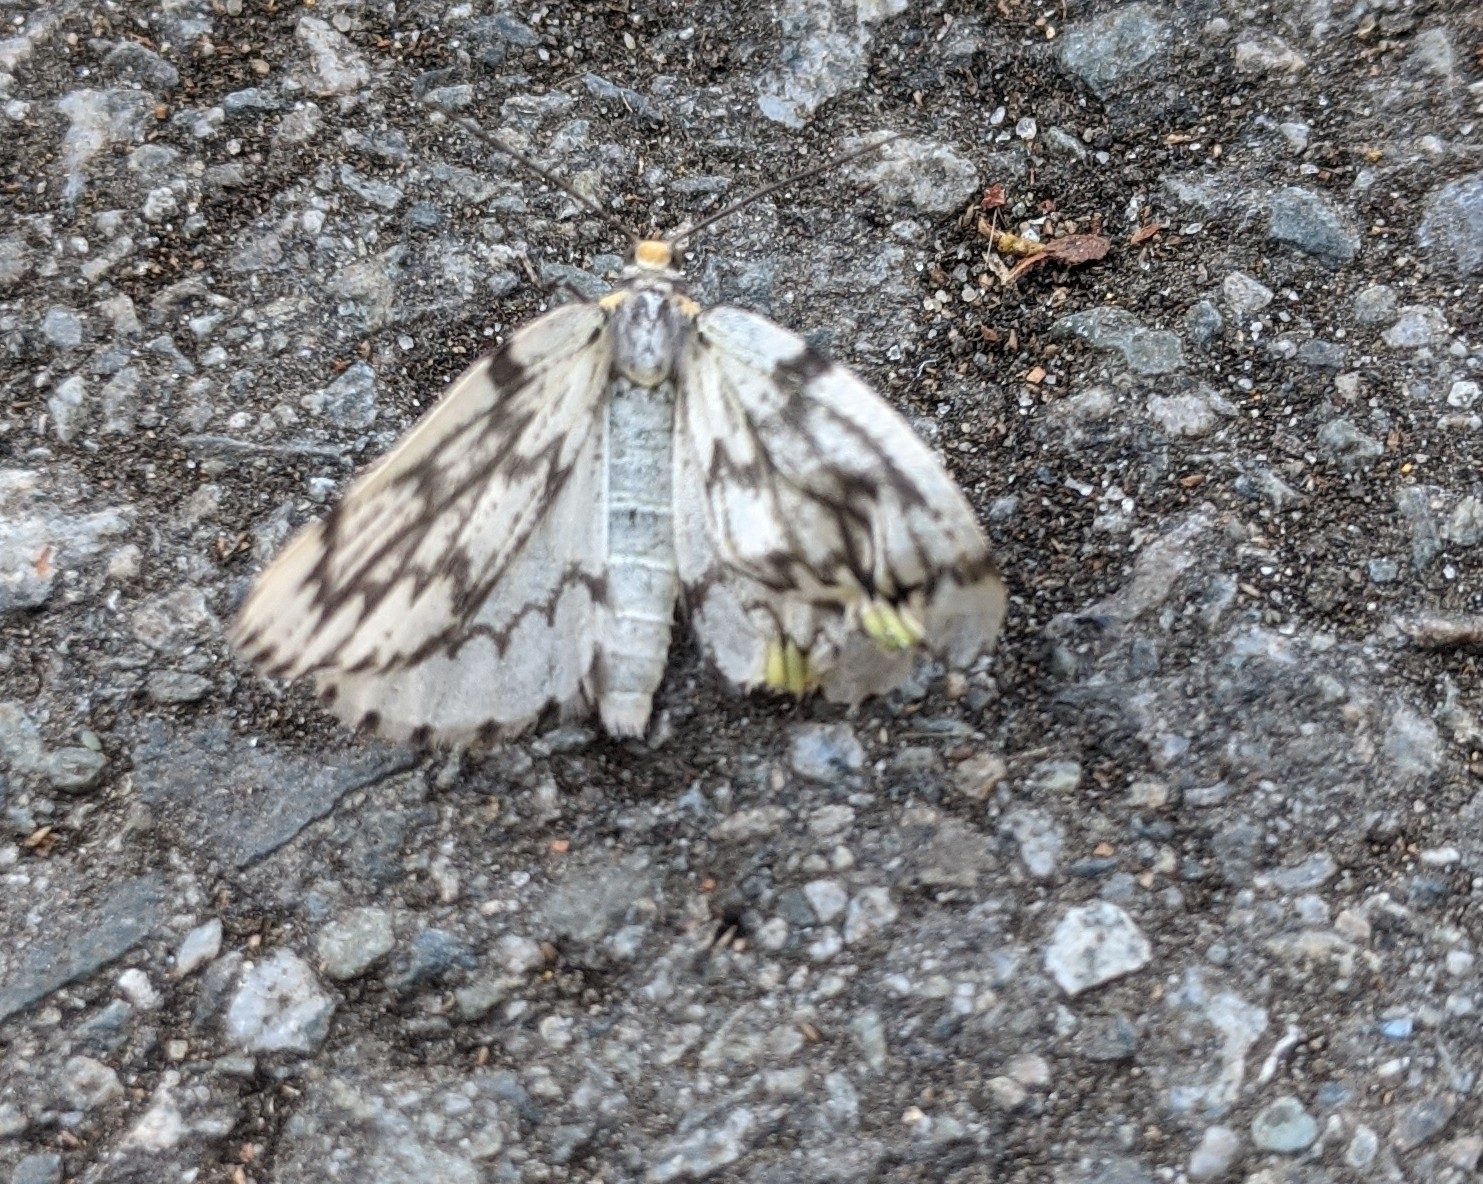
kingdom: Animalia
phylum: Arthropoda
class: Insecta
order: Lepidoptera
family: Geometridae
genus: Nepytia
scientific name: Nepytia phantasmaria
